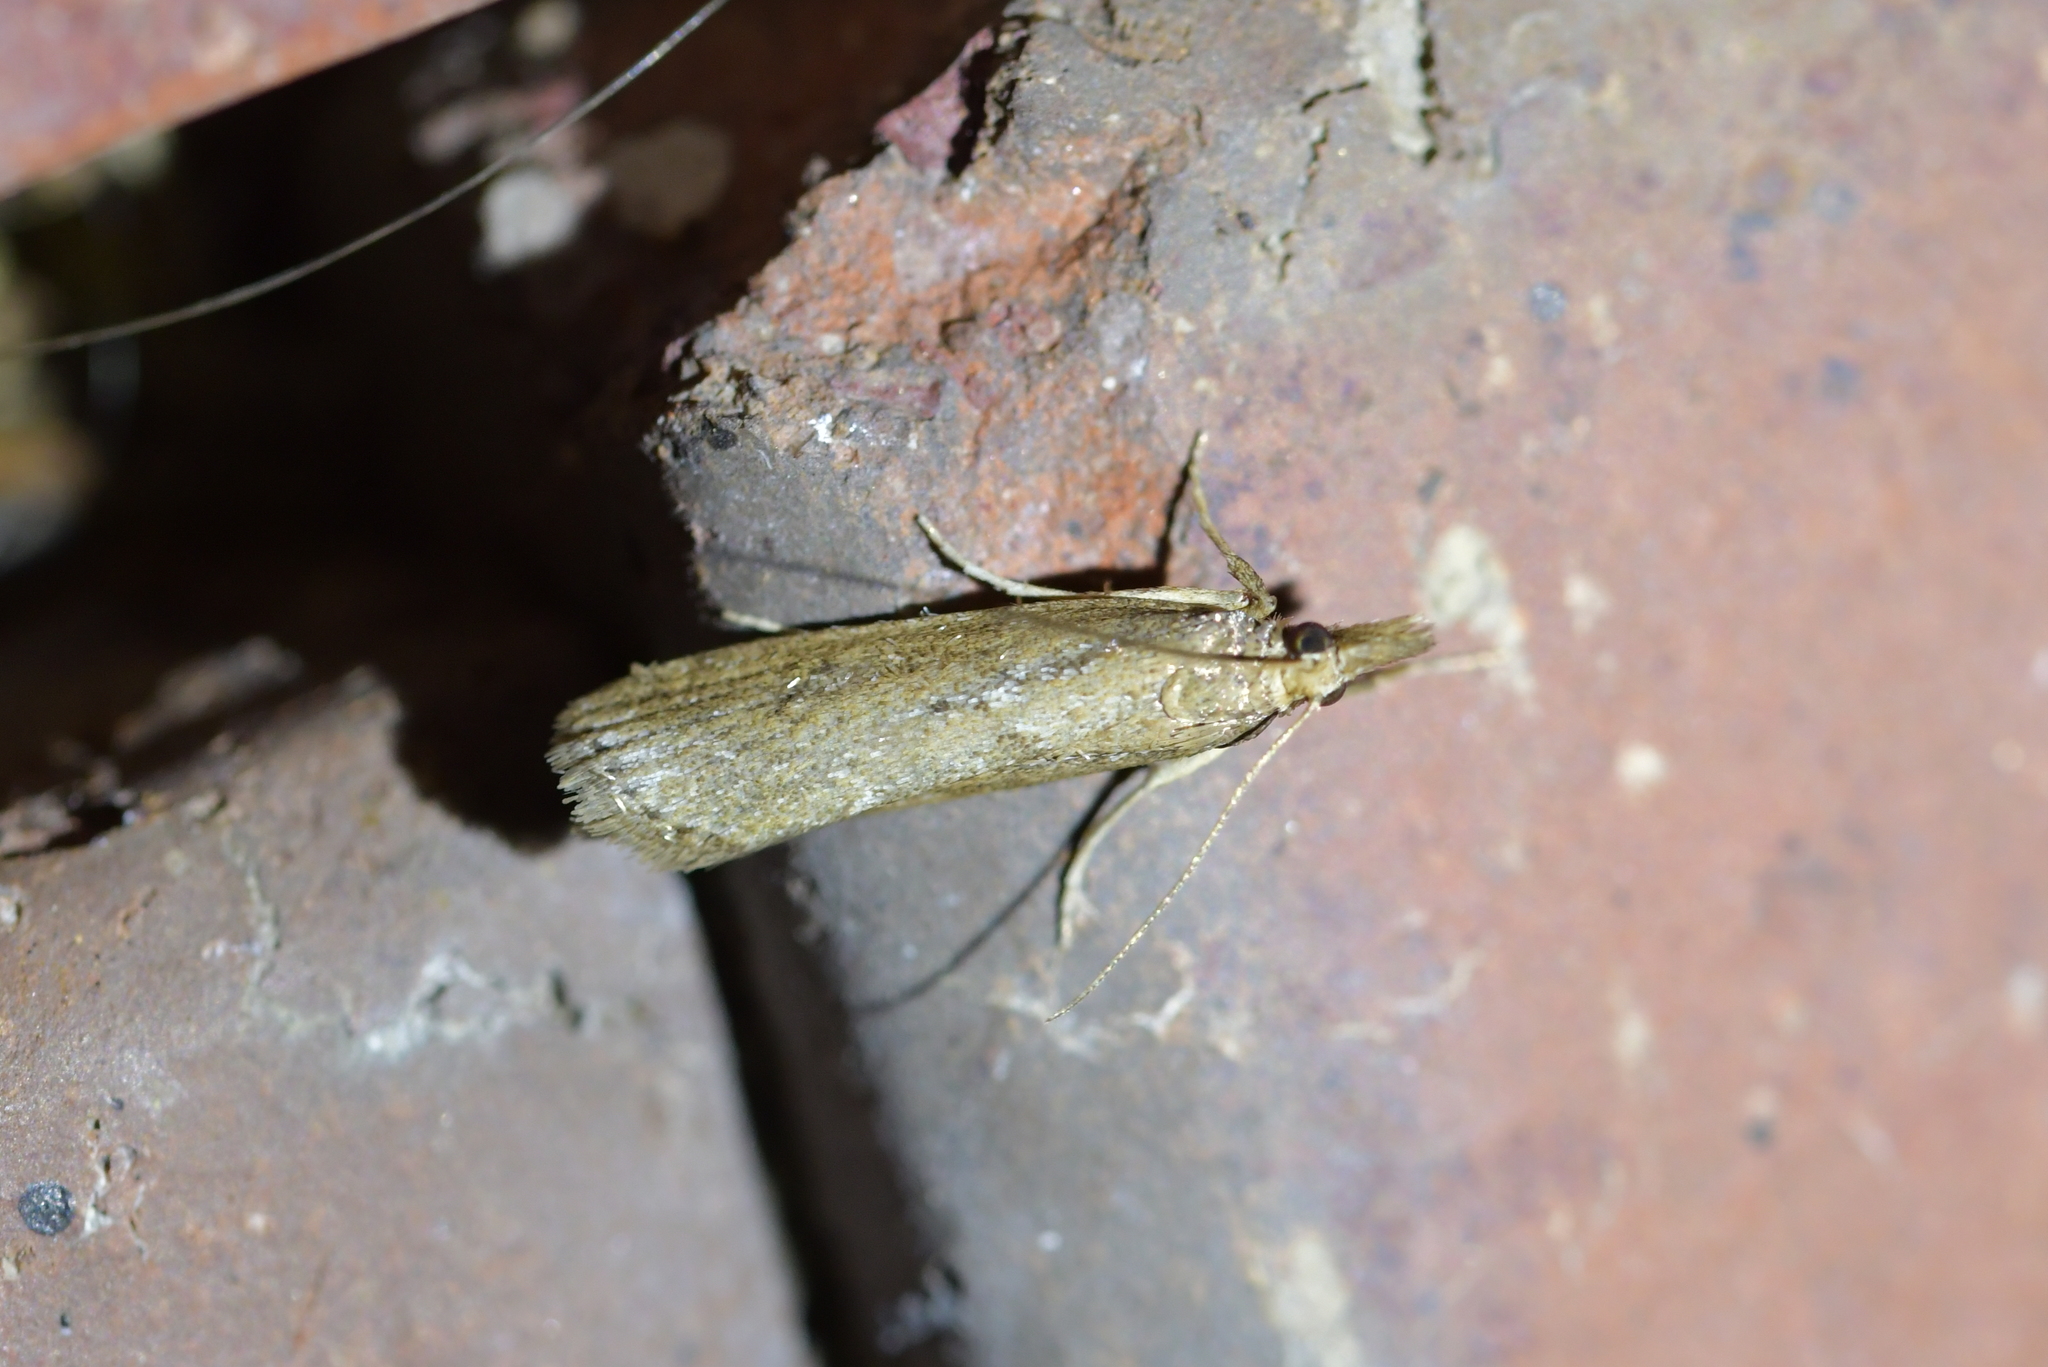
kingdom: Animalia
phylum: Arthropoda
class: Insecta
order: Lepidoptera
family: Crambidae
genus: Eudonia
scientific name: Eudonia octophora
